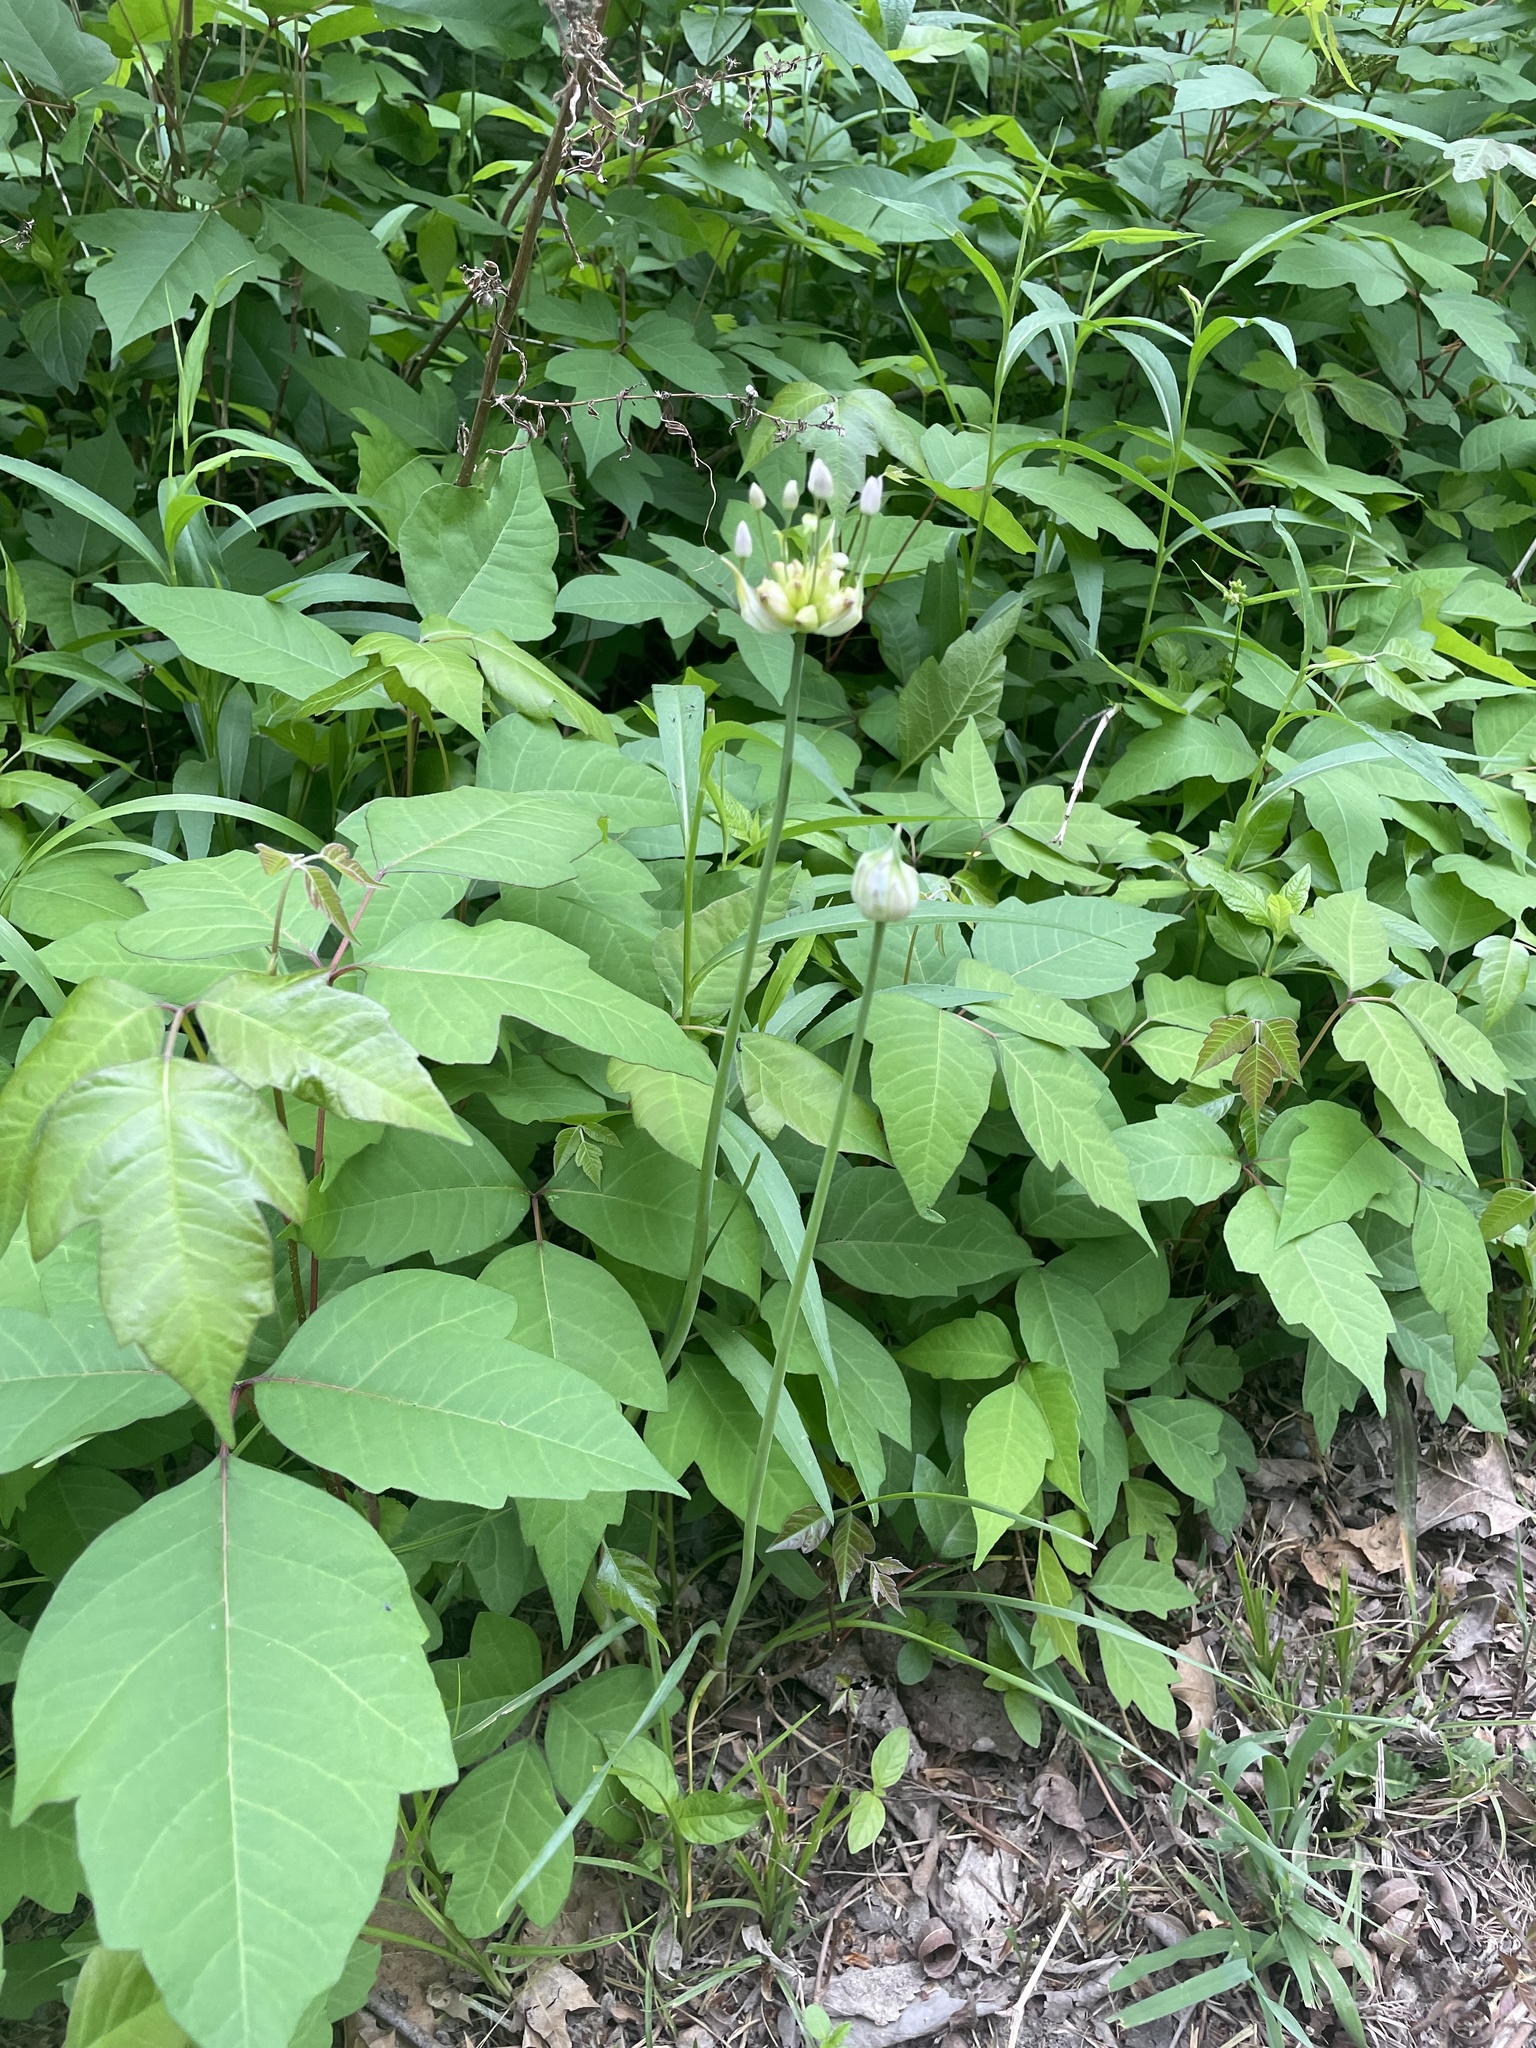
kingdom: Plantae
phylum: Tracheophyta
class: Liliopsida
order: Asparagales
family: Amaryllidaceae
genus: Allium
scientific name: Allium canadense
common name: Meadow garlic
